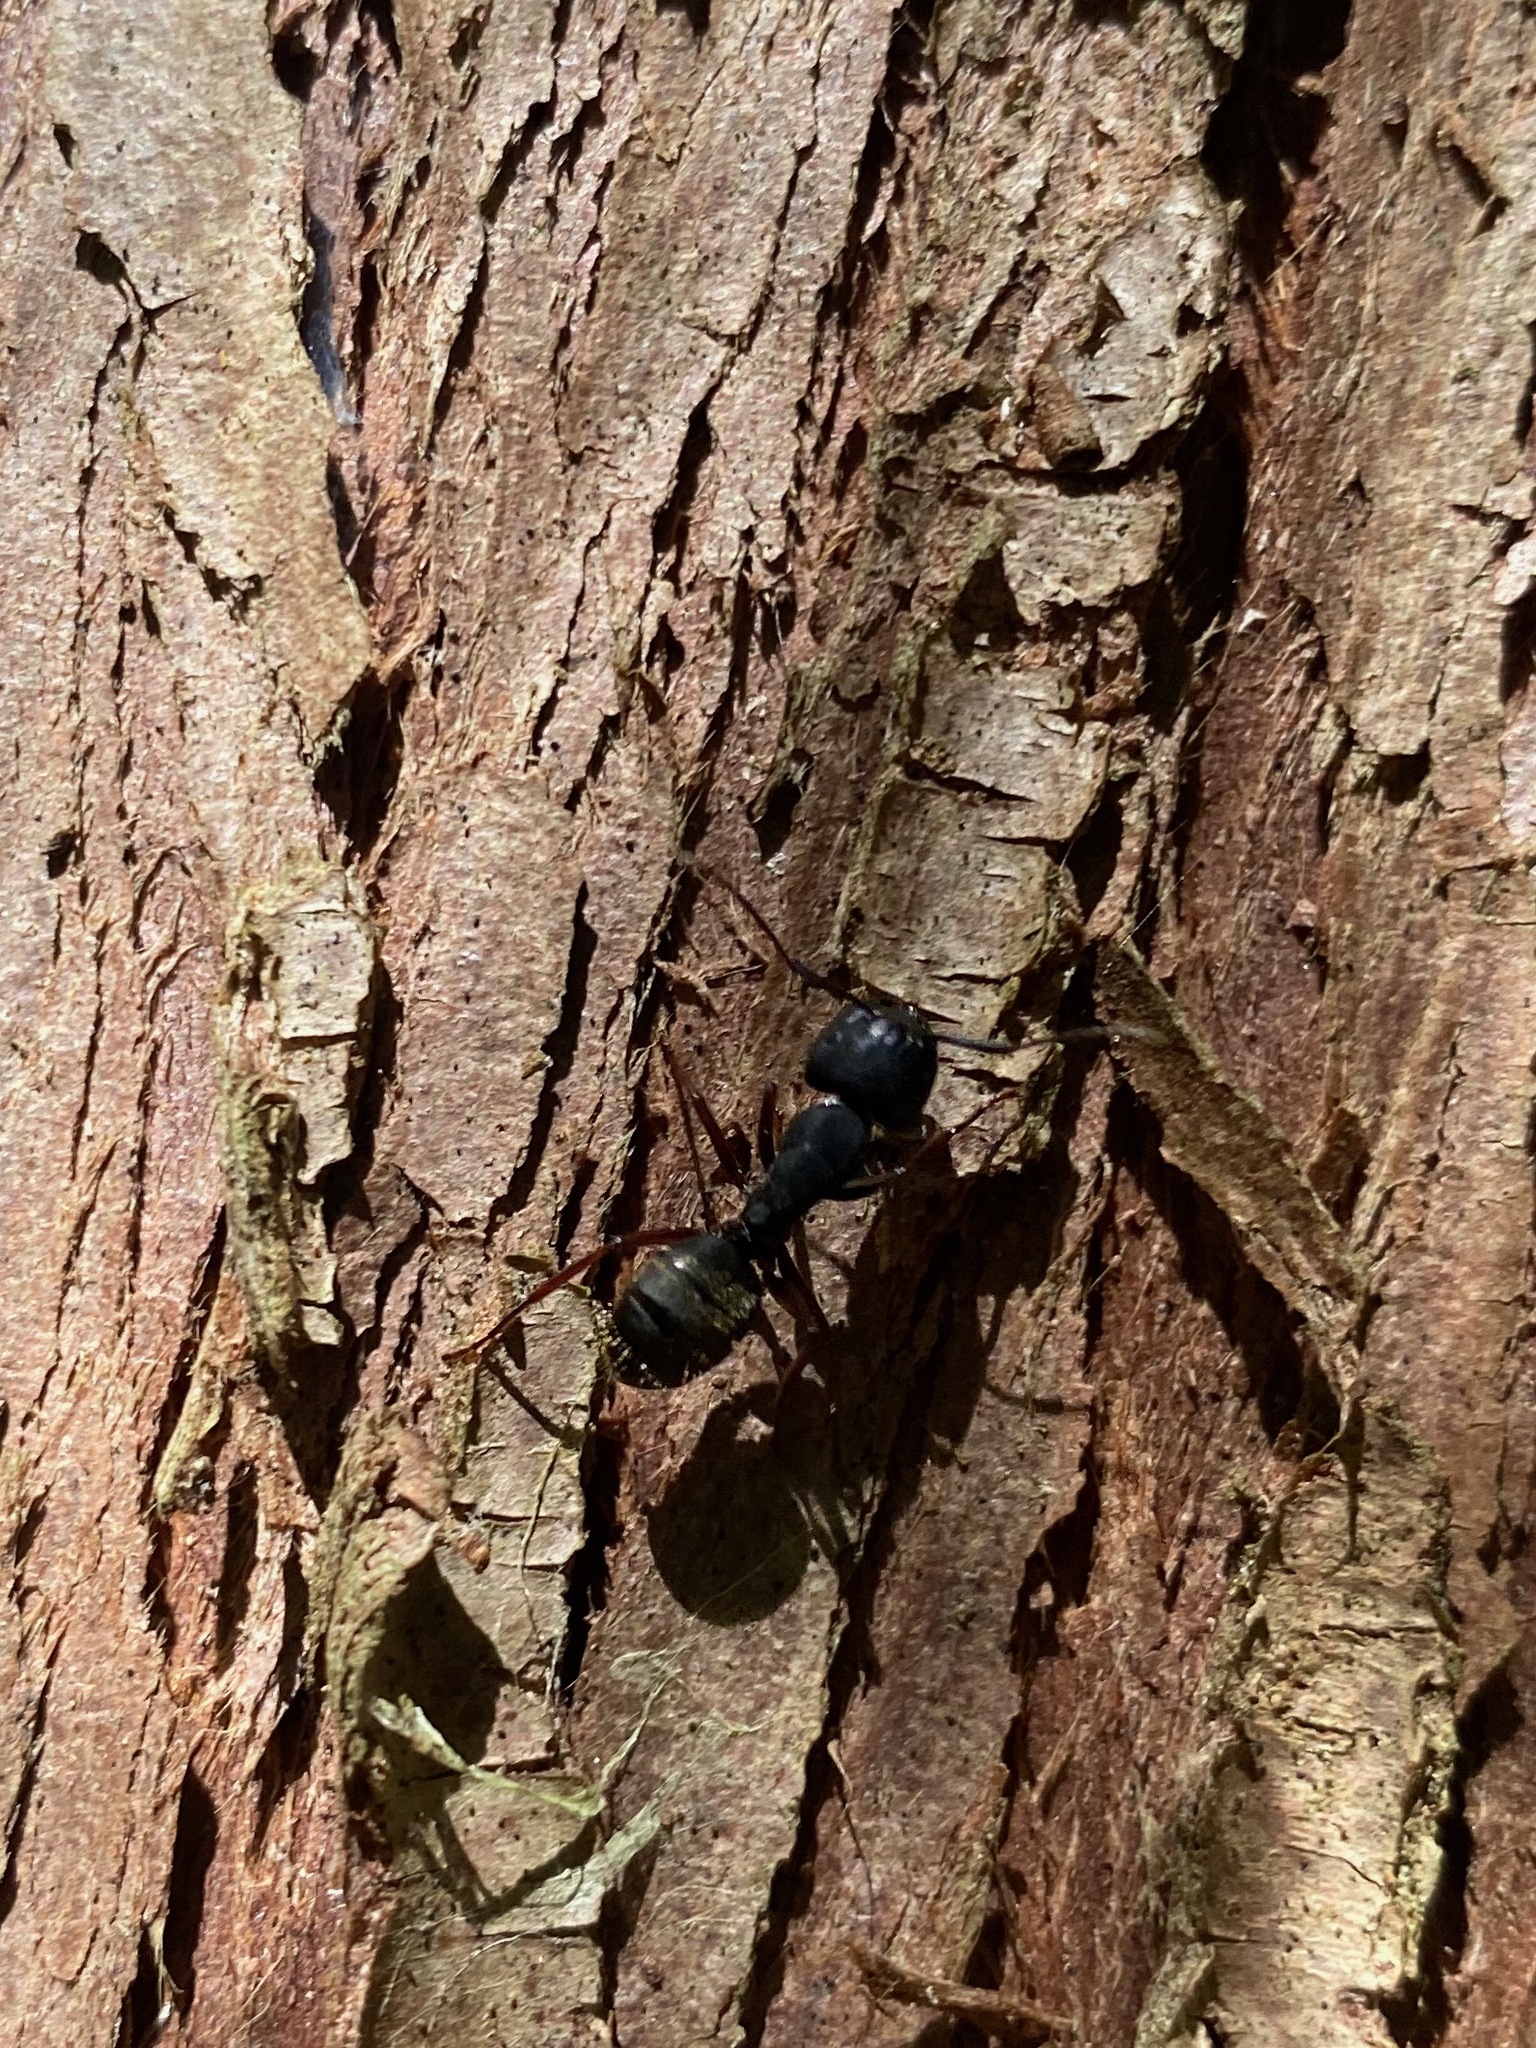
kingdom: Animalia
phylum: Arthropoda
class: Insecta
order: Hymenoptera
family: Formicidae
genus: Camponotus
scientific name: Camponotus modoc
